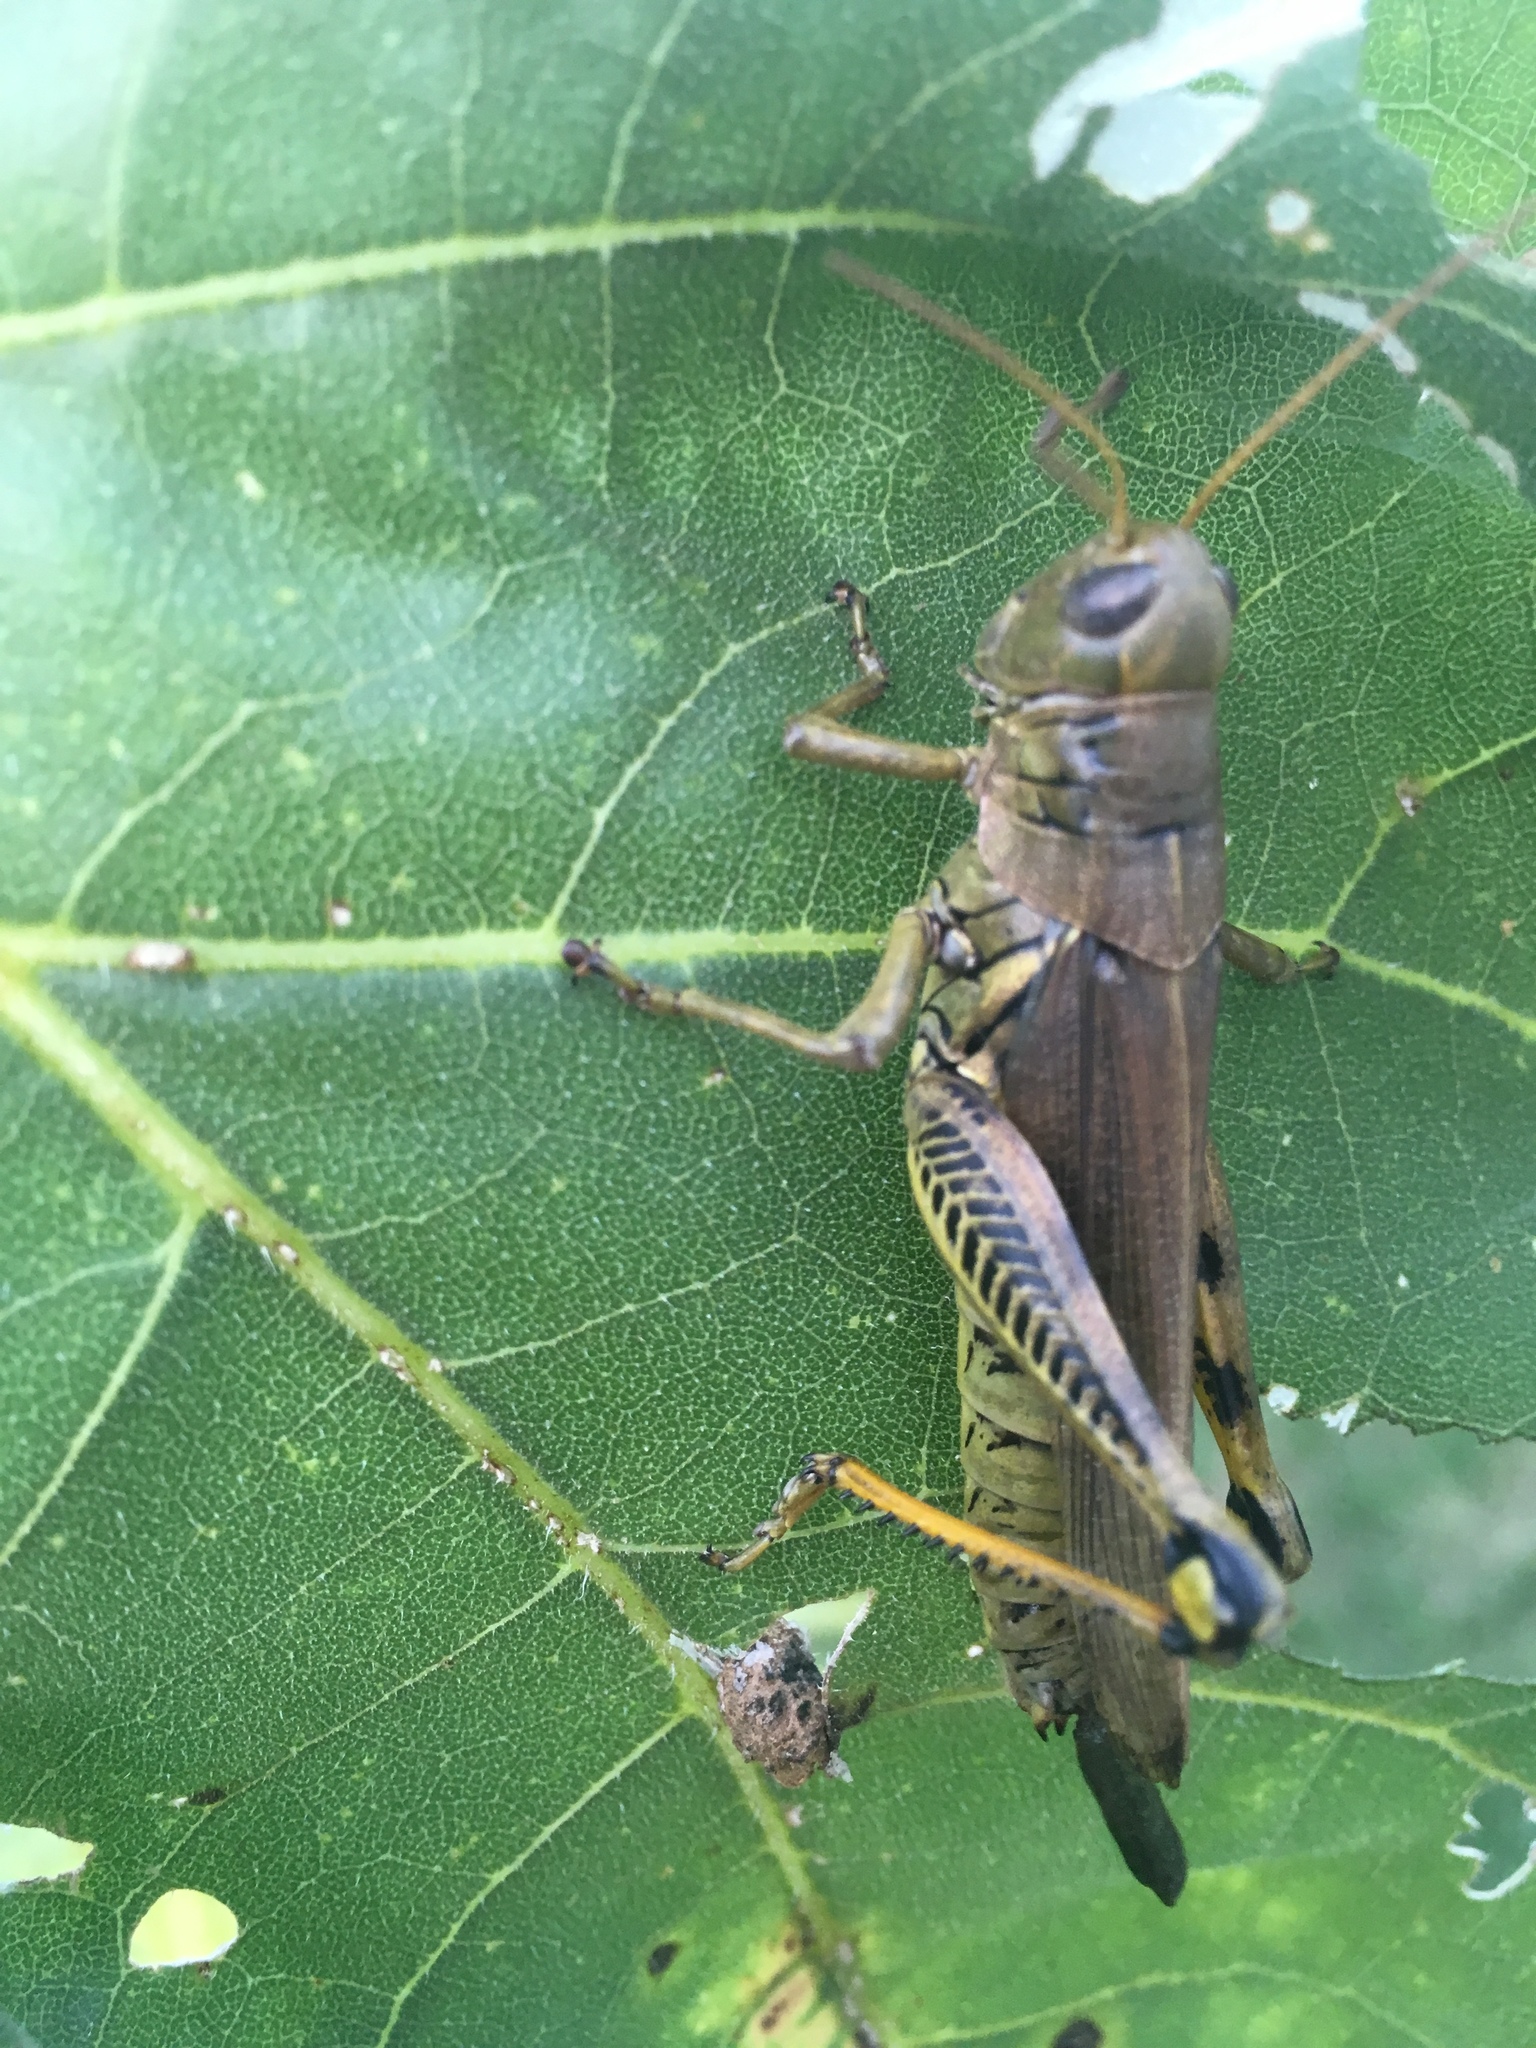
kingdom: Animalia
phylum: Arthropoda
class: Insecta
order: Orthoptera
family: Acrididae
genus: Melanoplus
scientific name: Melanoplus differentialis
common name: Differential grasshopper
